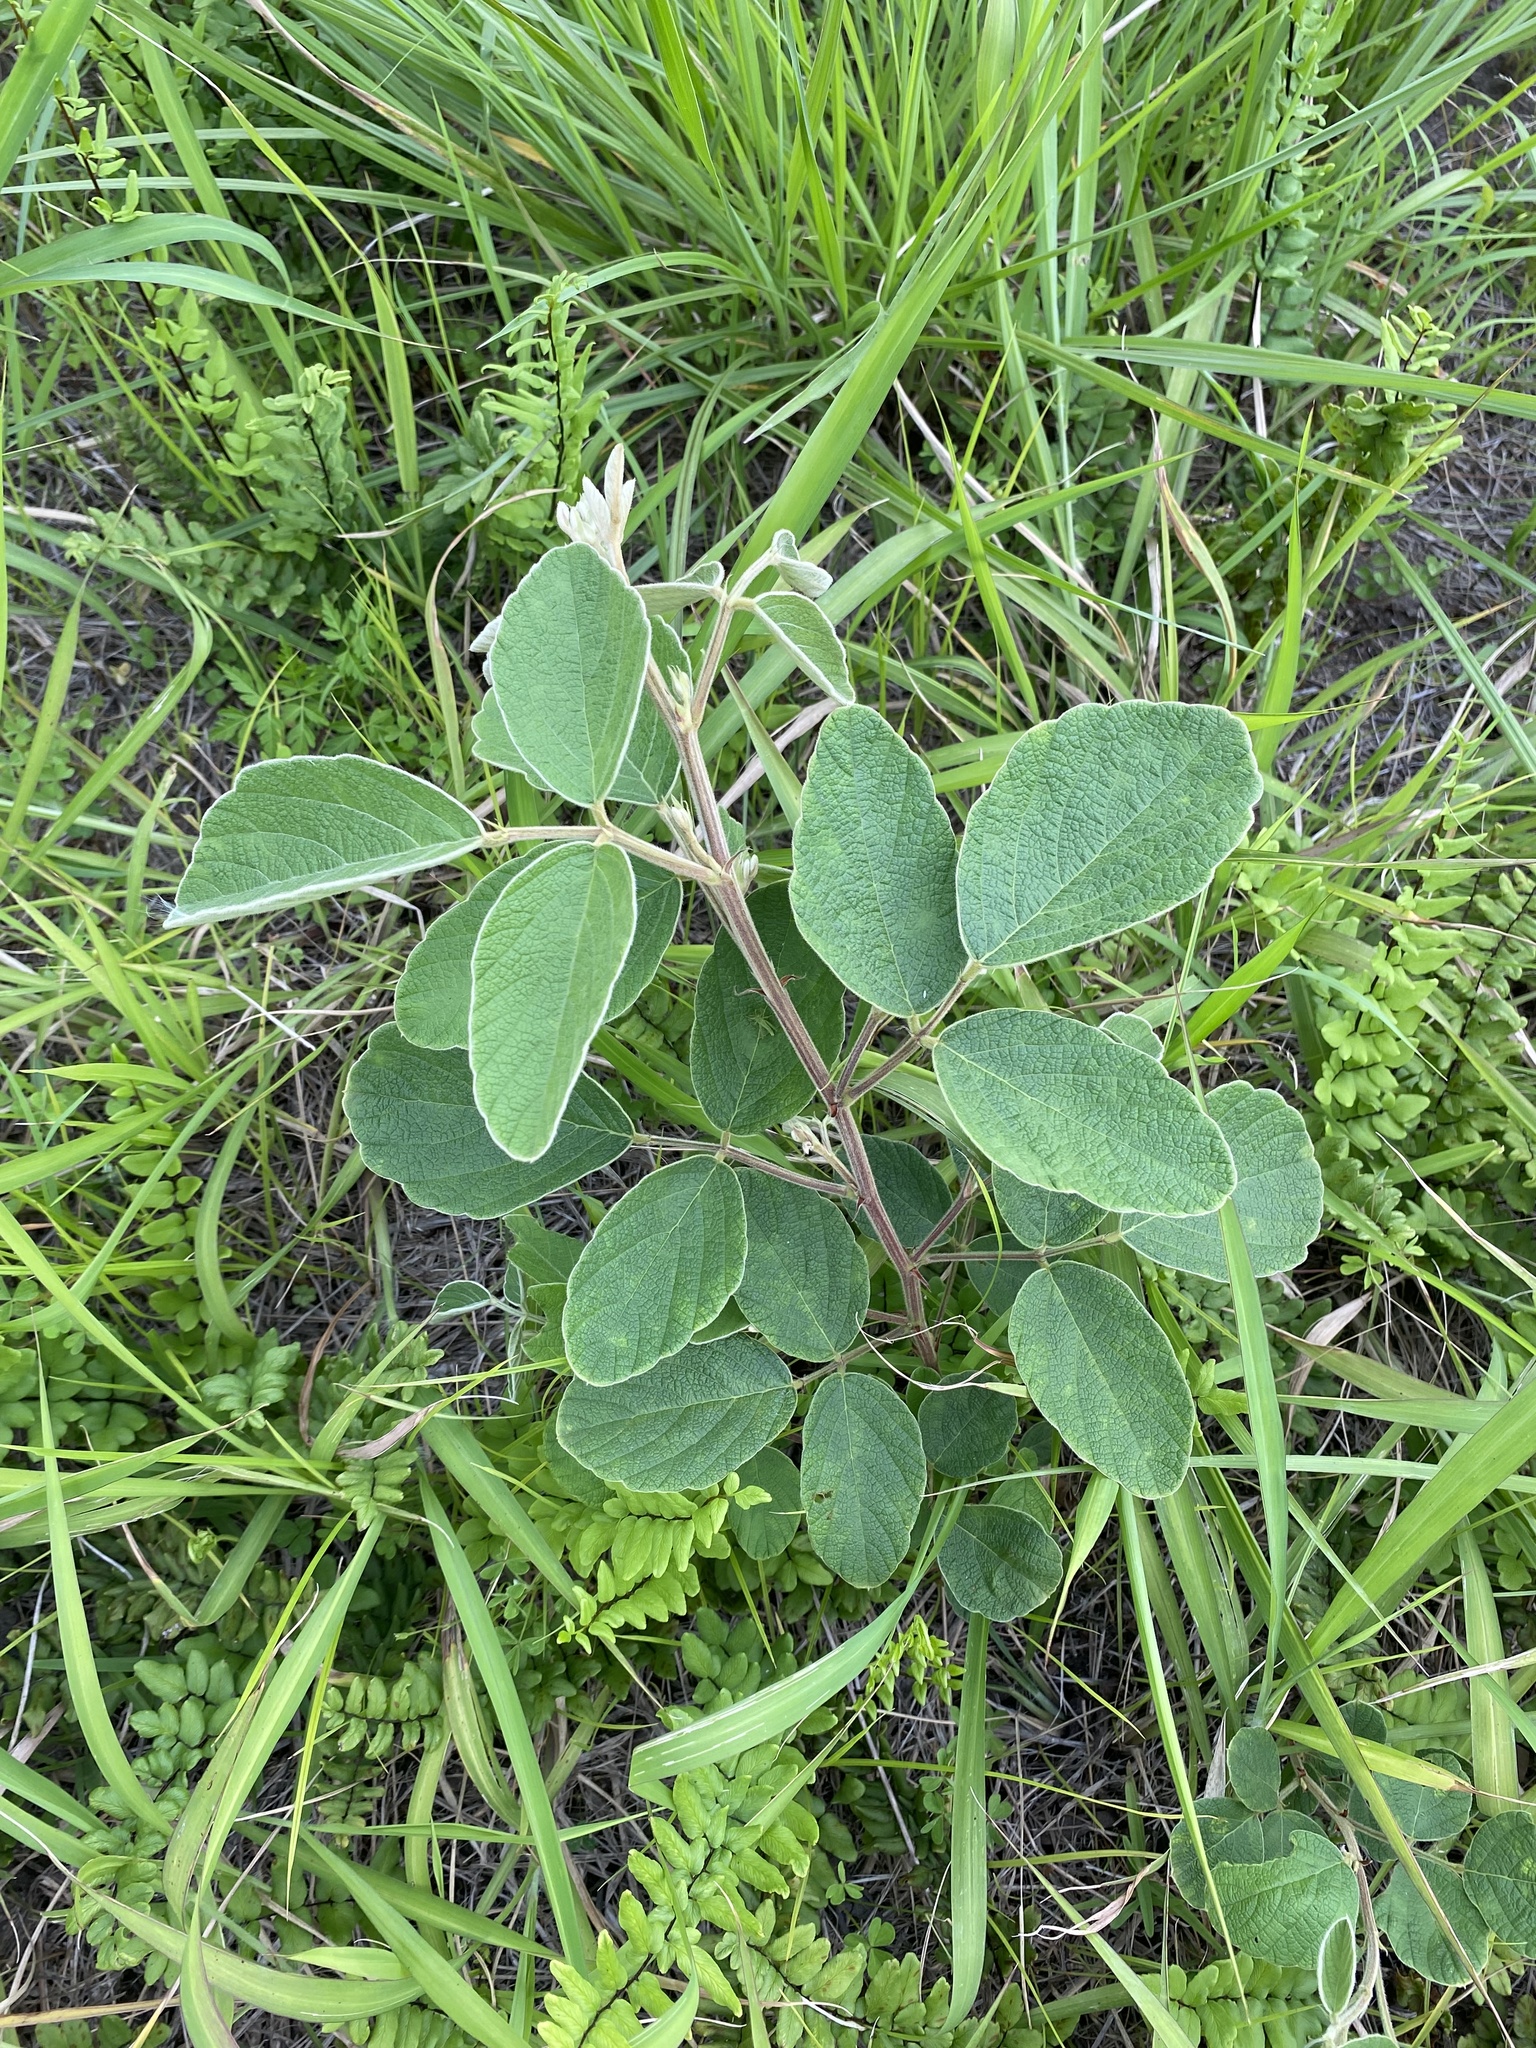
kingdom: Plantae
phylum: Tracheophyta
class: Magnoliopsida
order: Fabales
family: Fabaceae
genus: Pseudarthria
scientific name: Pseudarthria hookeri
